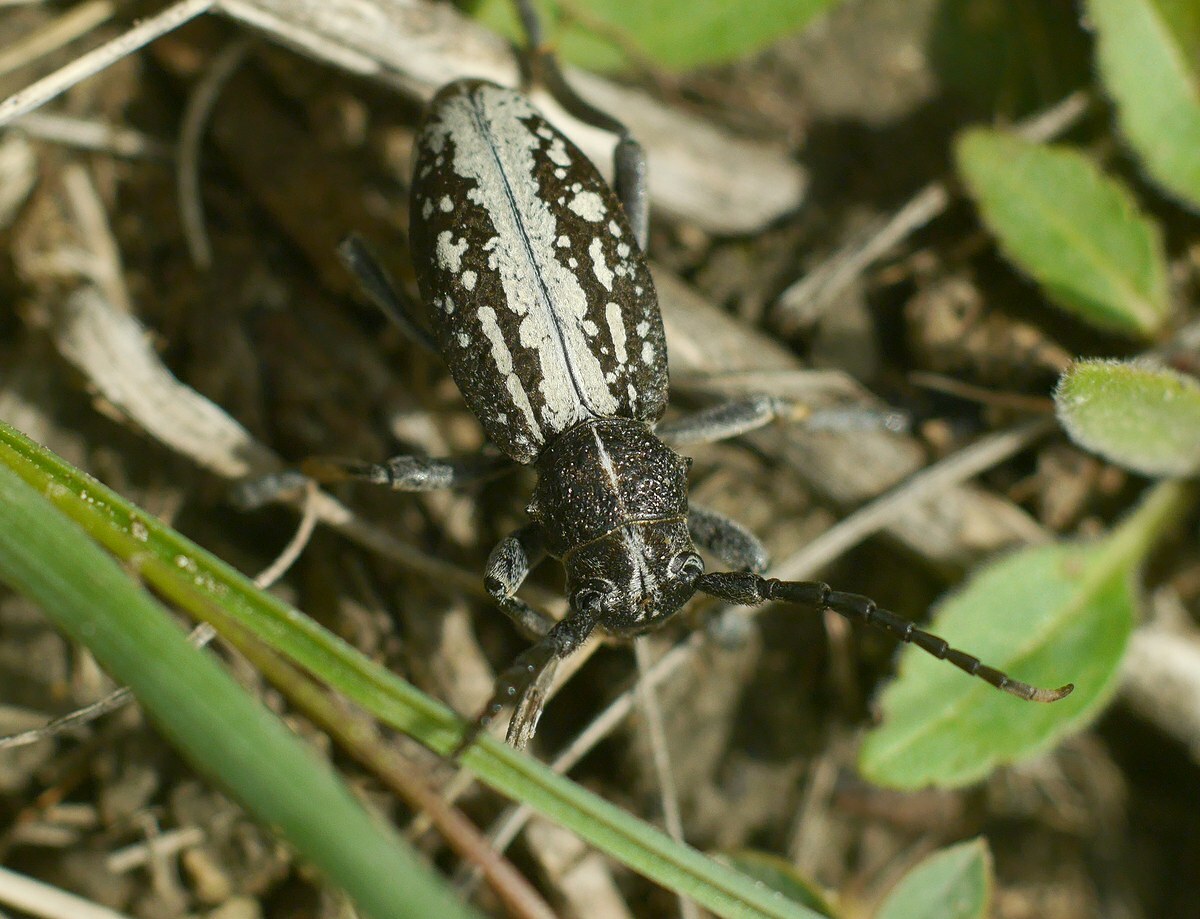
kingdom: Animalia
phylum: Arthropoda
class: Insecta
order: Coleoptera
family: Cerambycidae
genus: Dorcadion
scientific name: Dorcadion equestre
